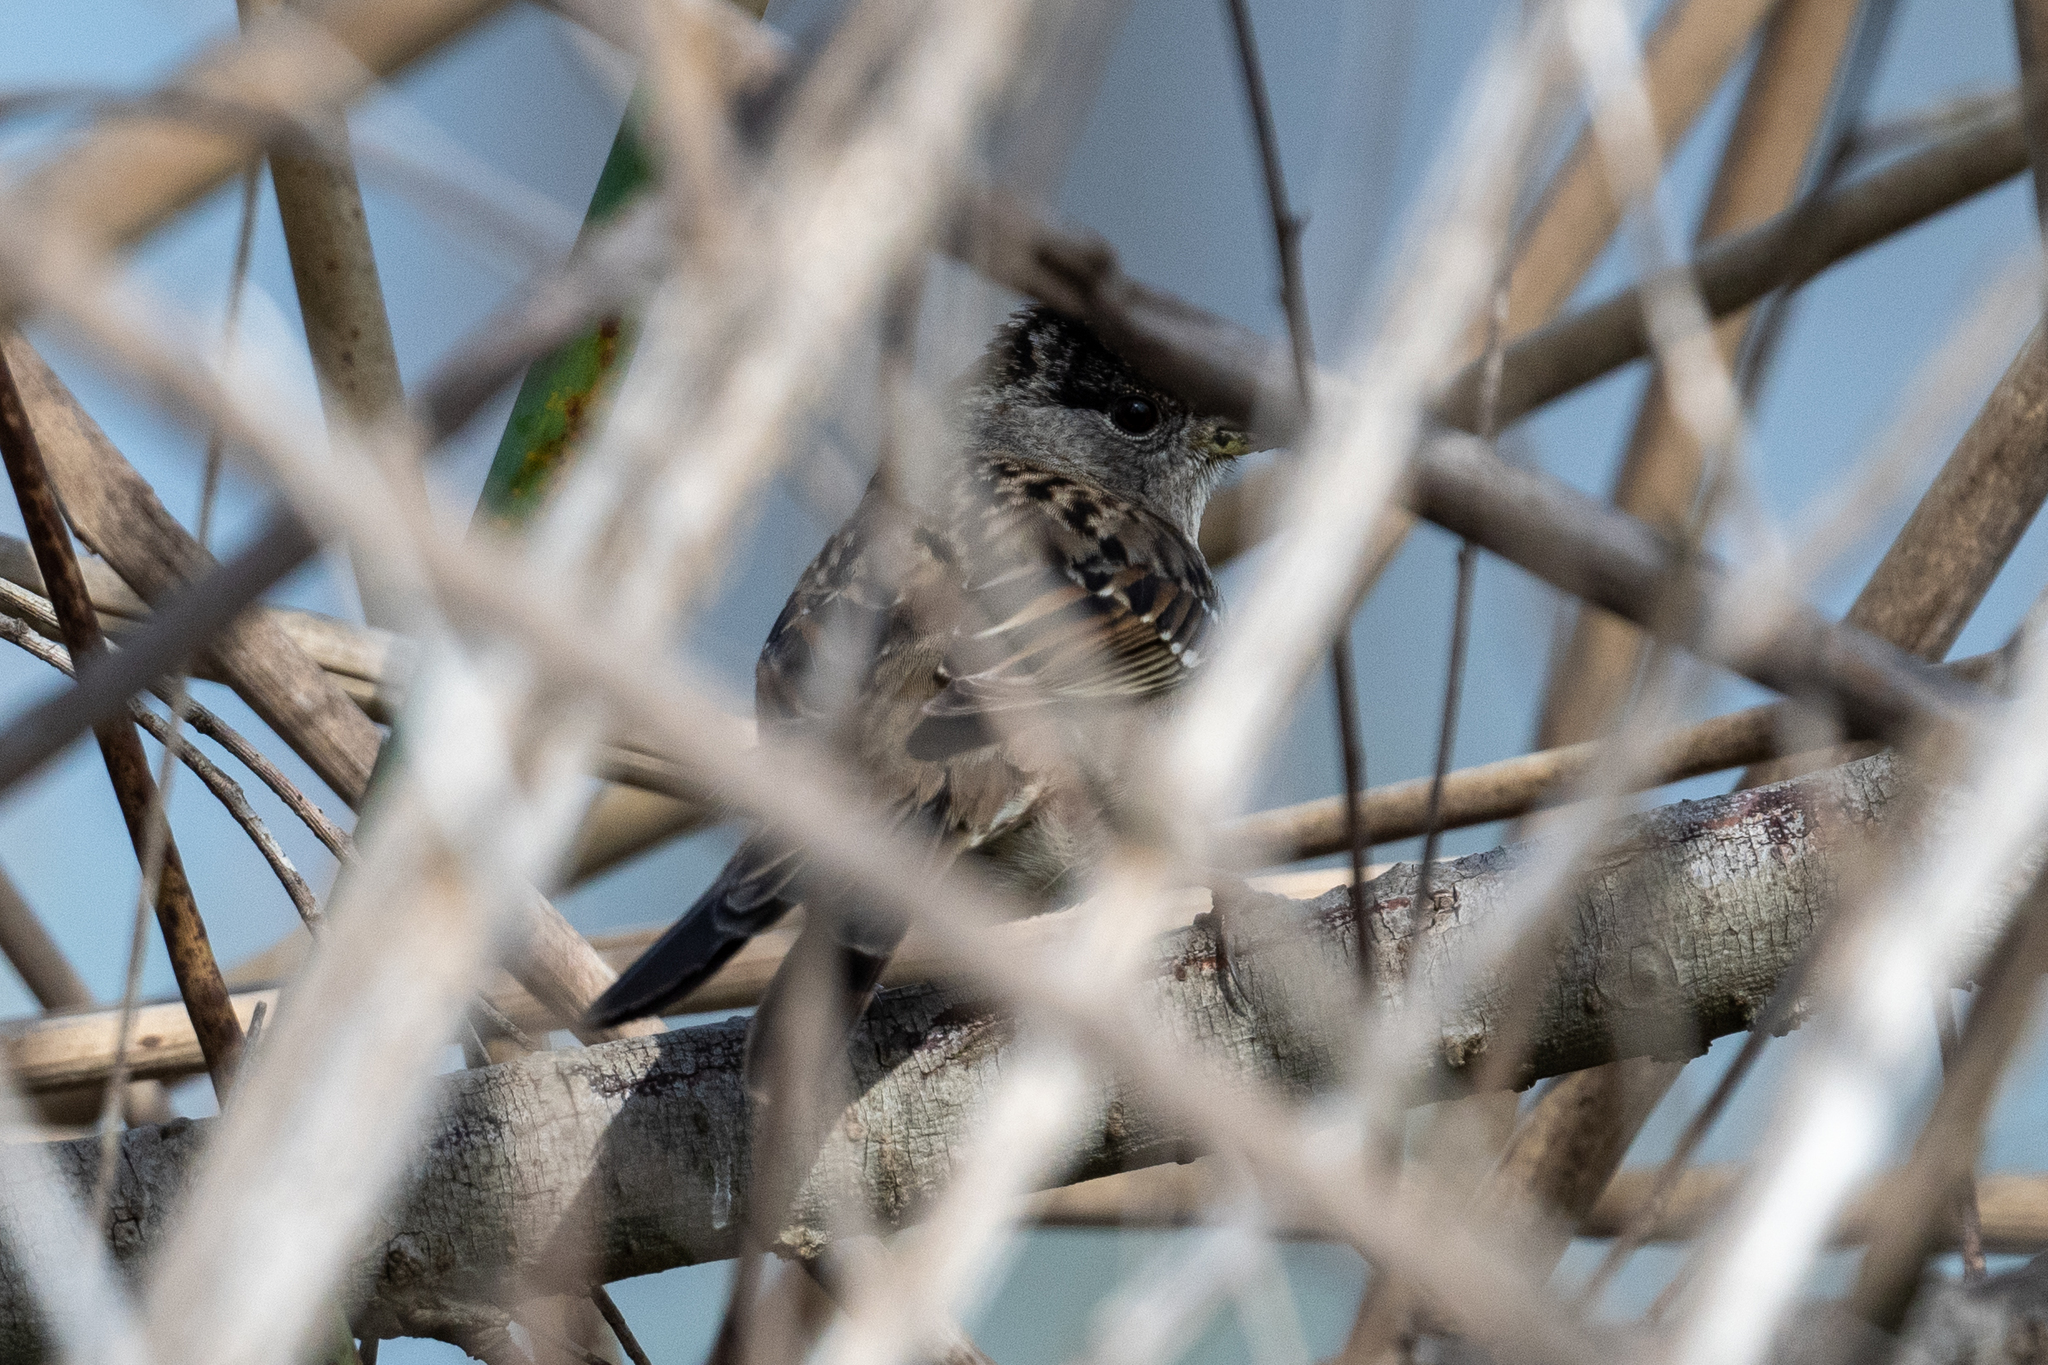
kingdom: Animalia
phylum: Chordata
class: Aves
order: Passeriformes
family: Passerellidae
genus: Zonotrichia
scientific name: Zonotrichia atricapilla
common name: Golden-crowned sparrow
